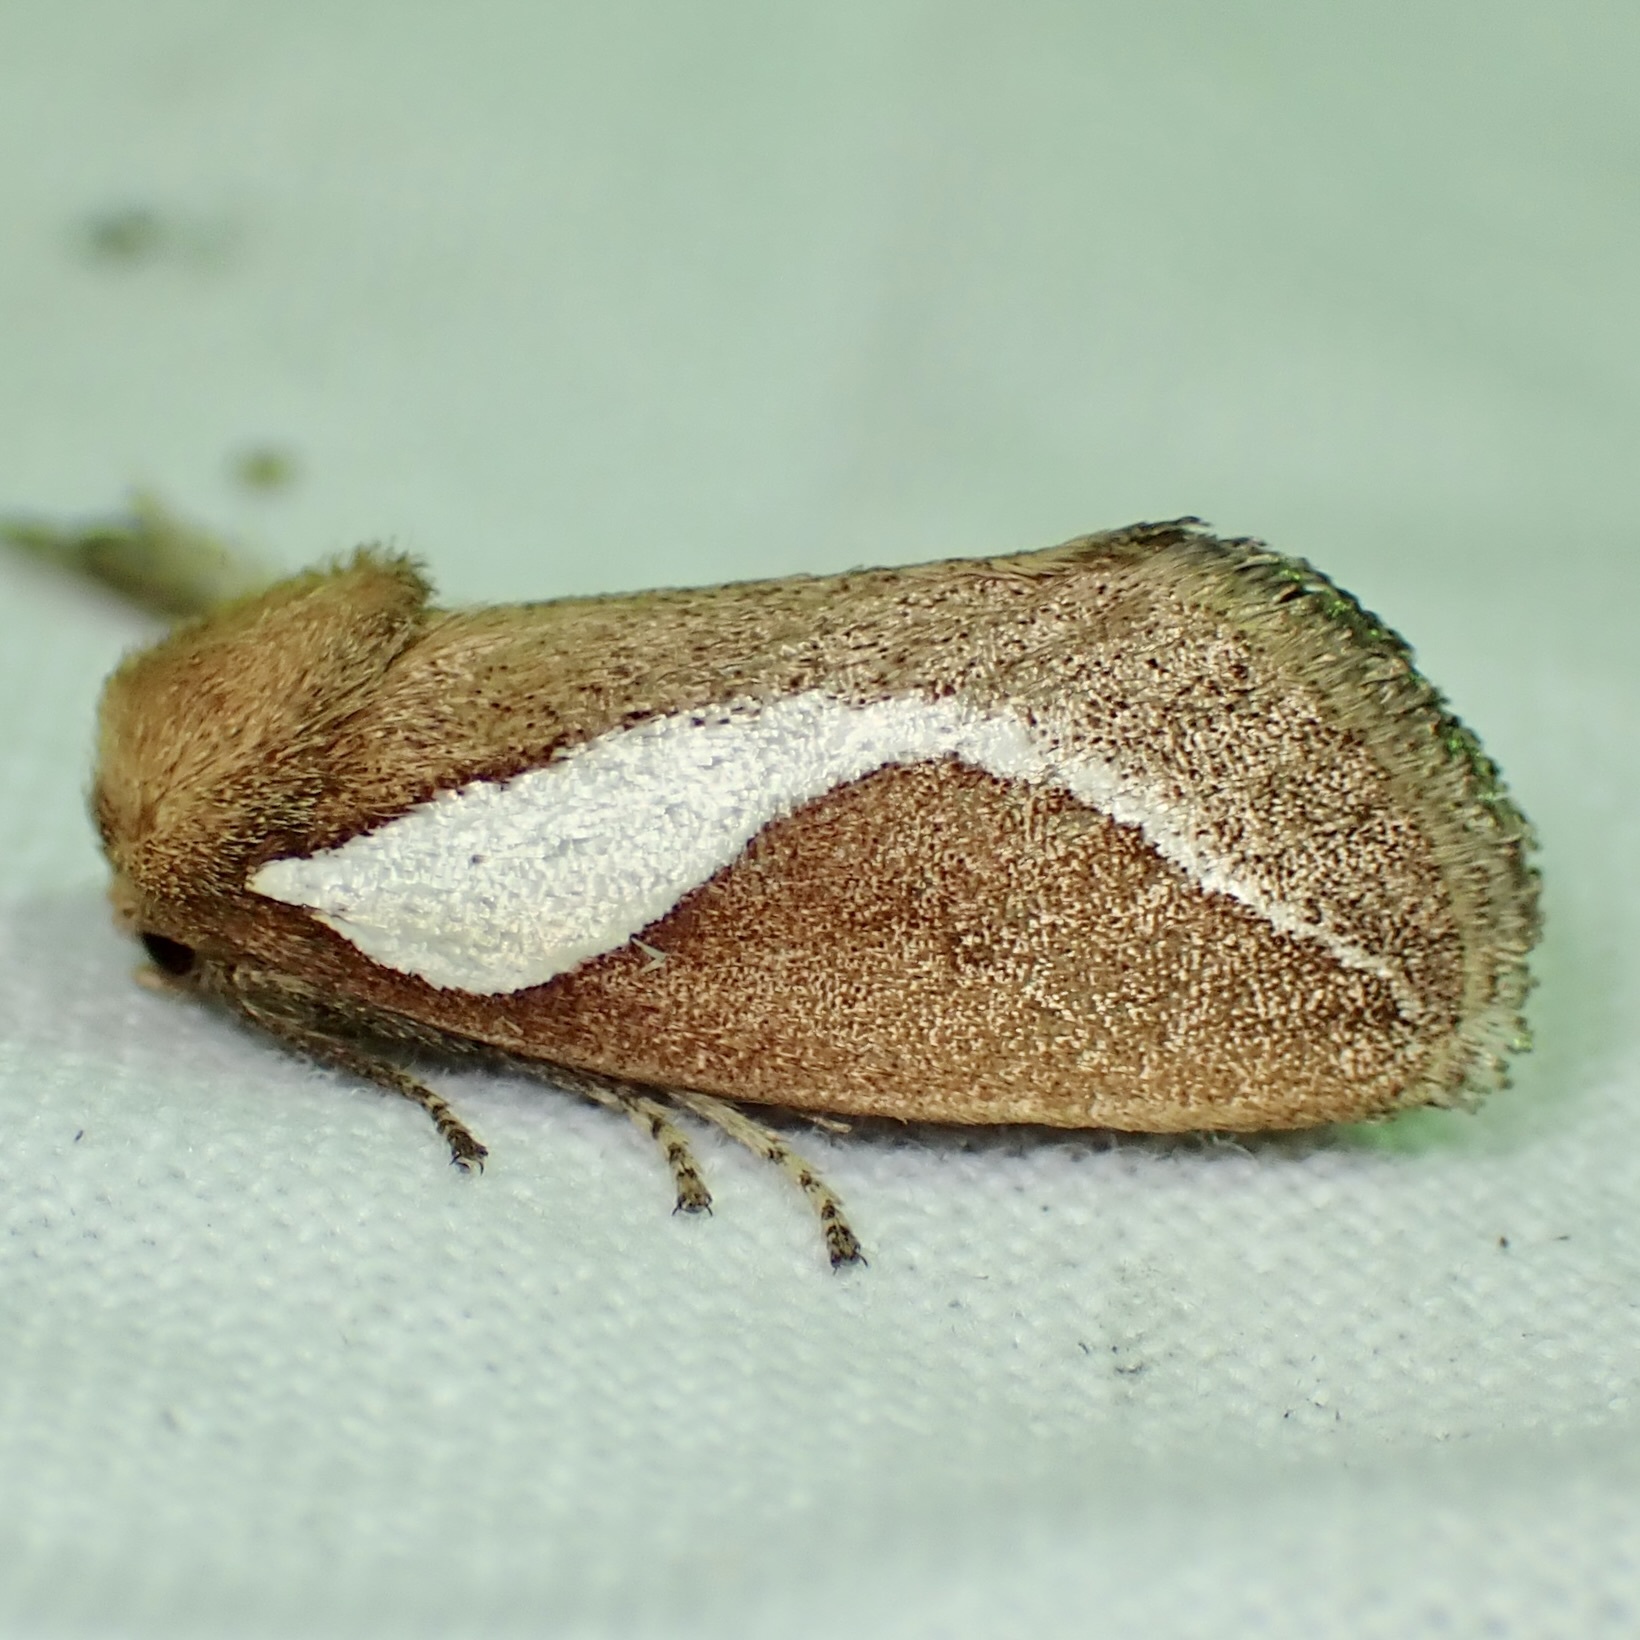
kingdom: Animalia
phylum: Arthropoda
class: Insecta
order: Lepidoptera
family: Limacodidae
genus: Prolimacodes
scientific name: Prolimacodes trigona
